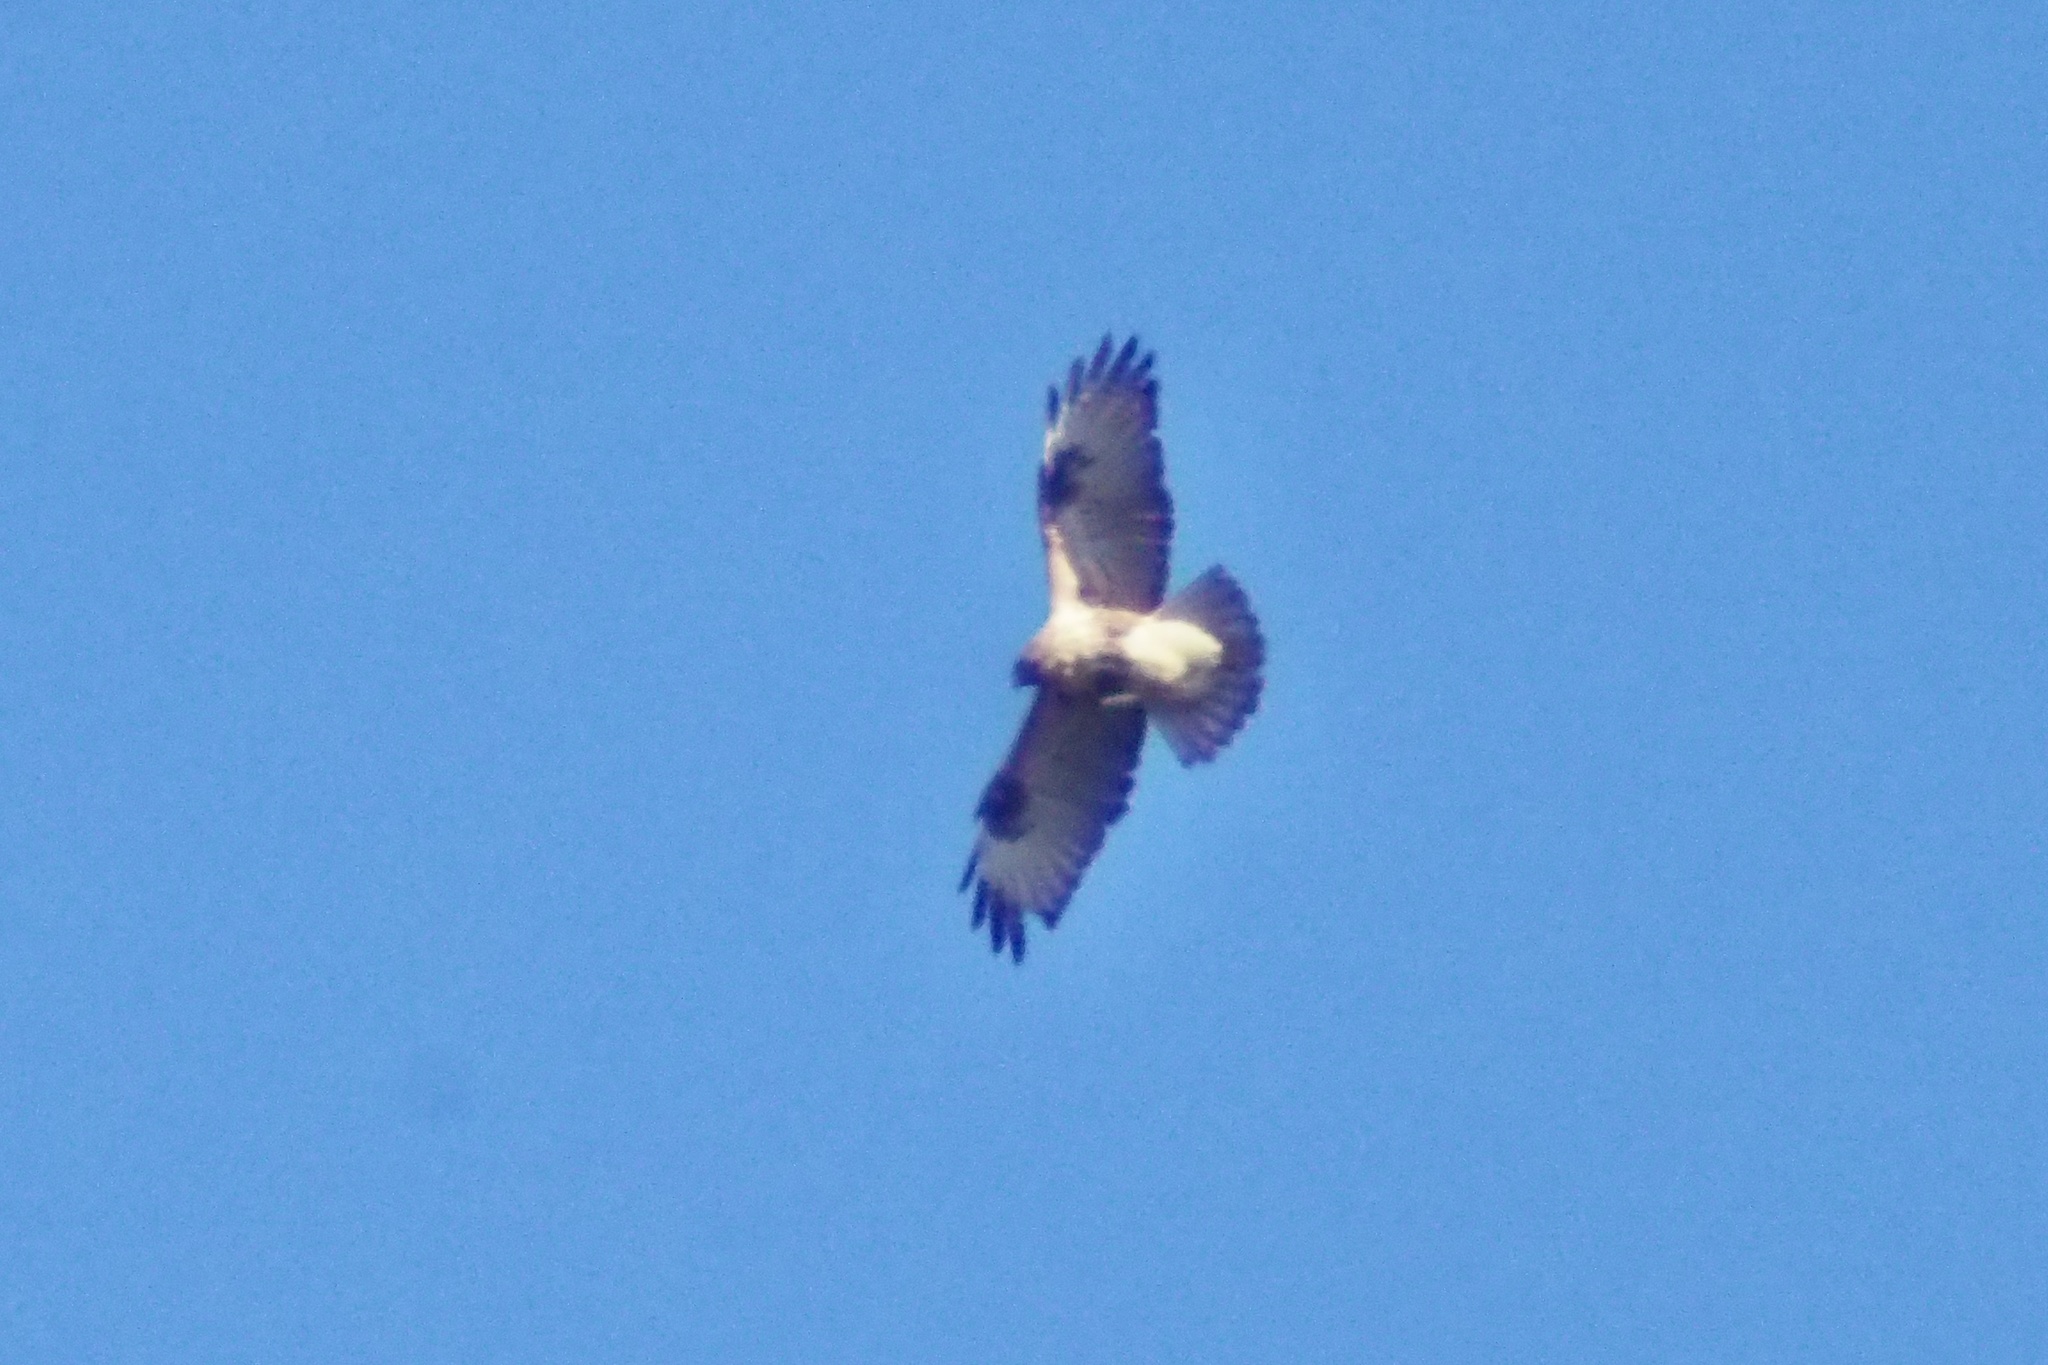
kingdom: Animalia
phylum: Chordata
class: Aves
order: Accipitriformes
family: Accipitridae
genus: Buteo
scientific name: Buteo japonicus
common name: Eastern buzzard
